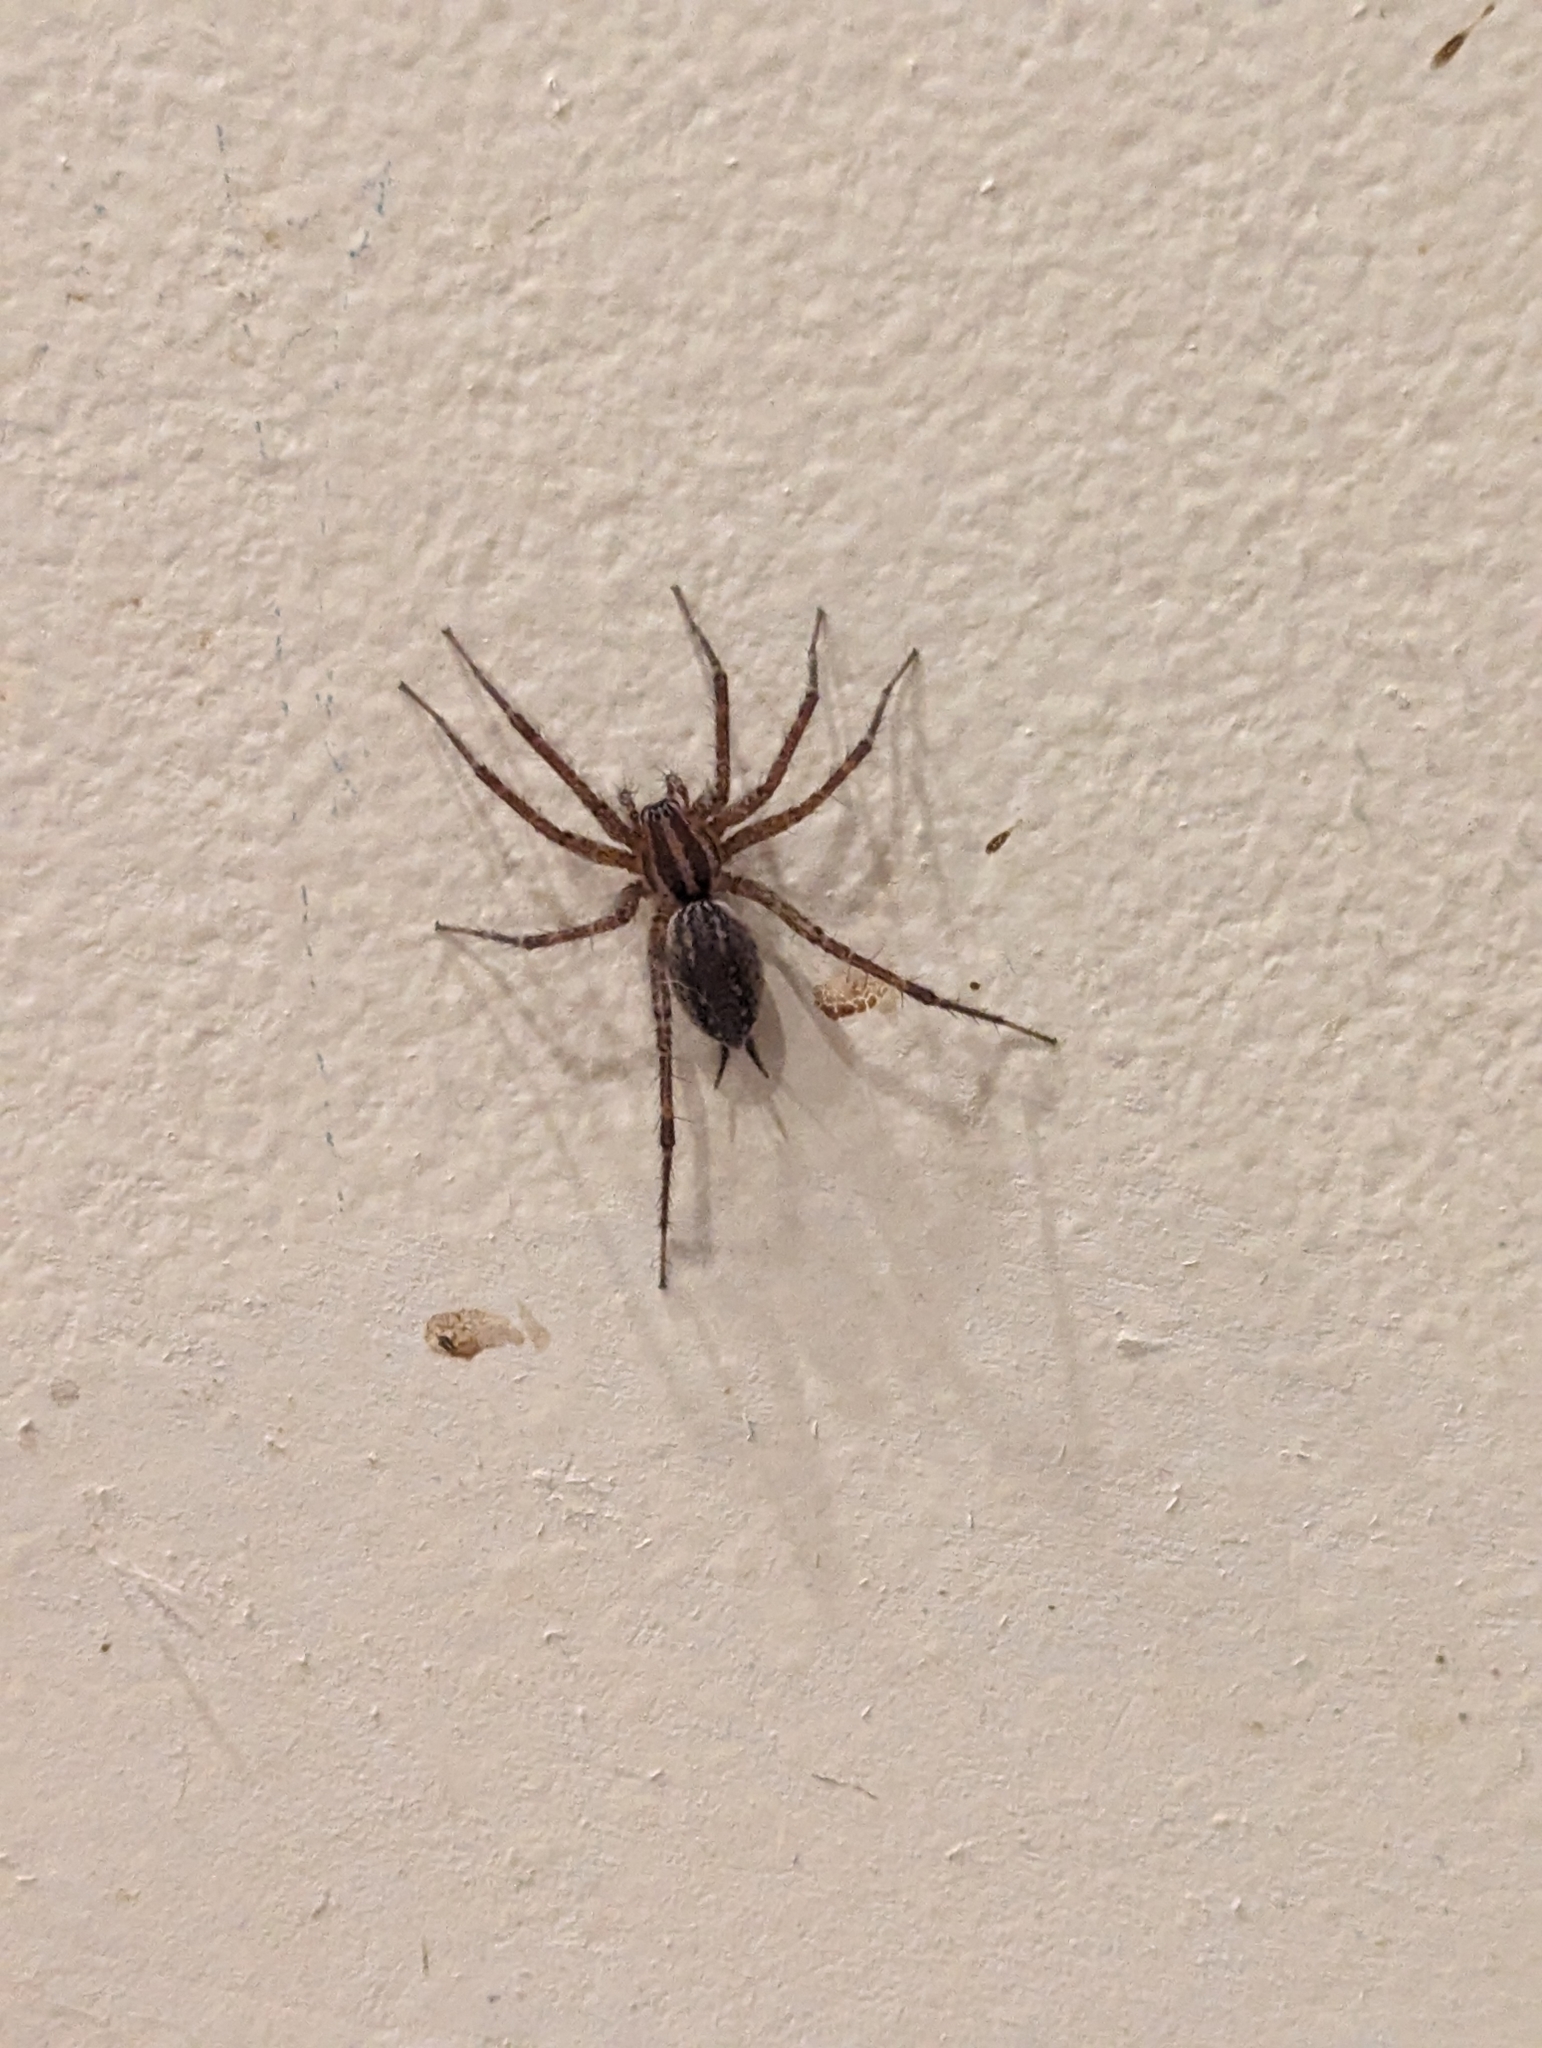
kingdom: Animalia
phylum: Arthropoda
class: Arachnida
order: Araneae
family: Agelenidae
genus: Agelenopsis
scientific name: Agelenopsis
